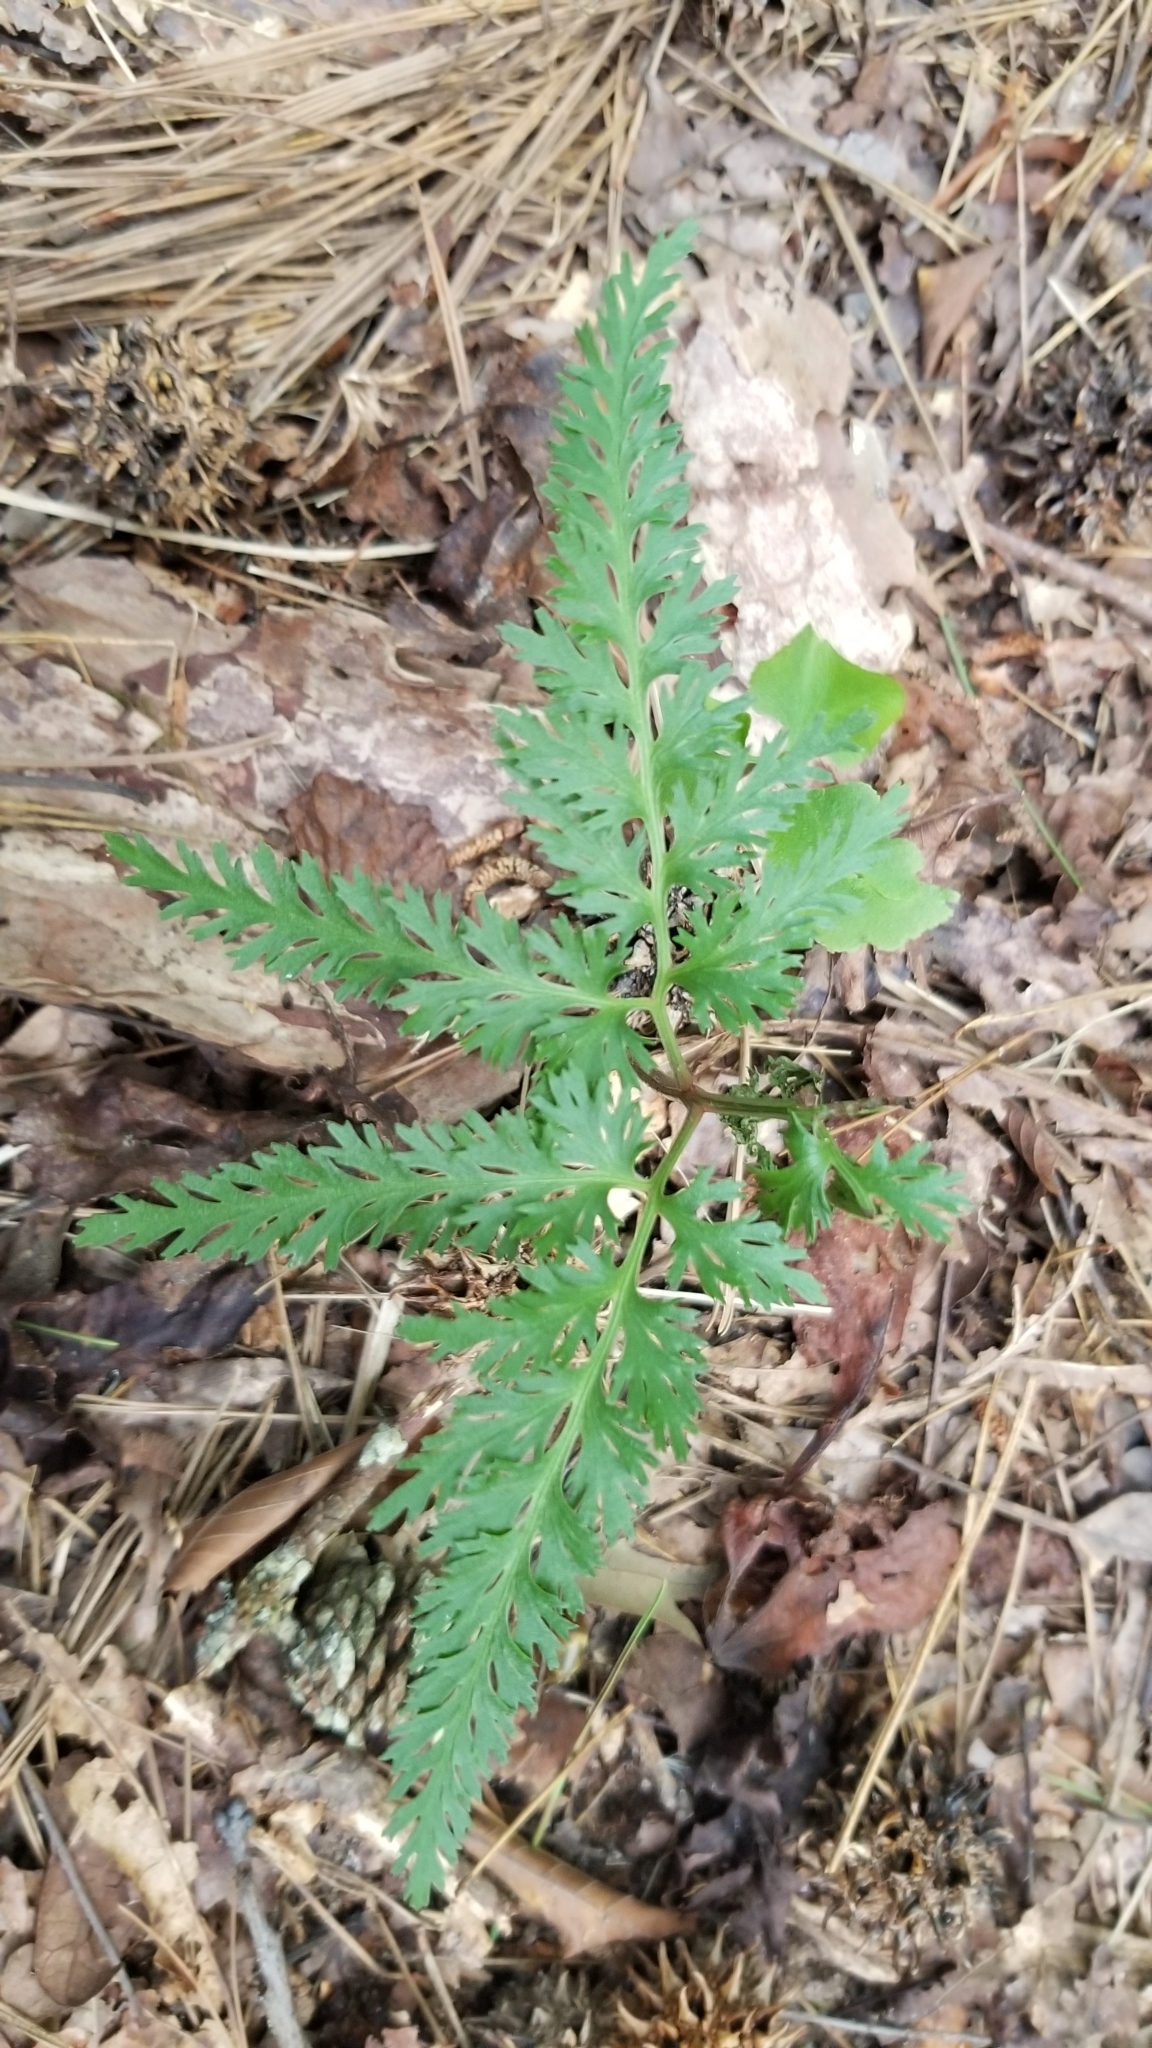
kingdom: Plantae
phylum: Tracheophyta
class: Polypodiopsida
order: Ophioglossales
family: Ophioglossaceae
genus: Sceptridium
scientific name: Sceptridium dissectum
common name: Cut-leaved grapefern
